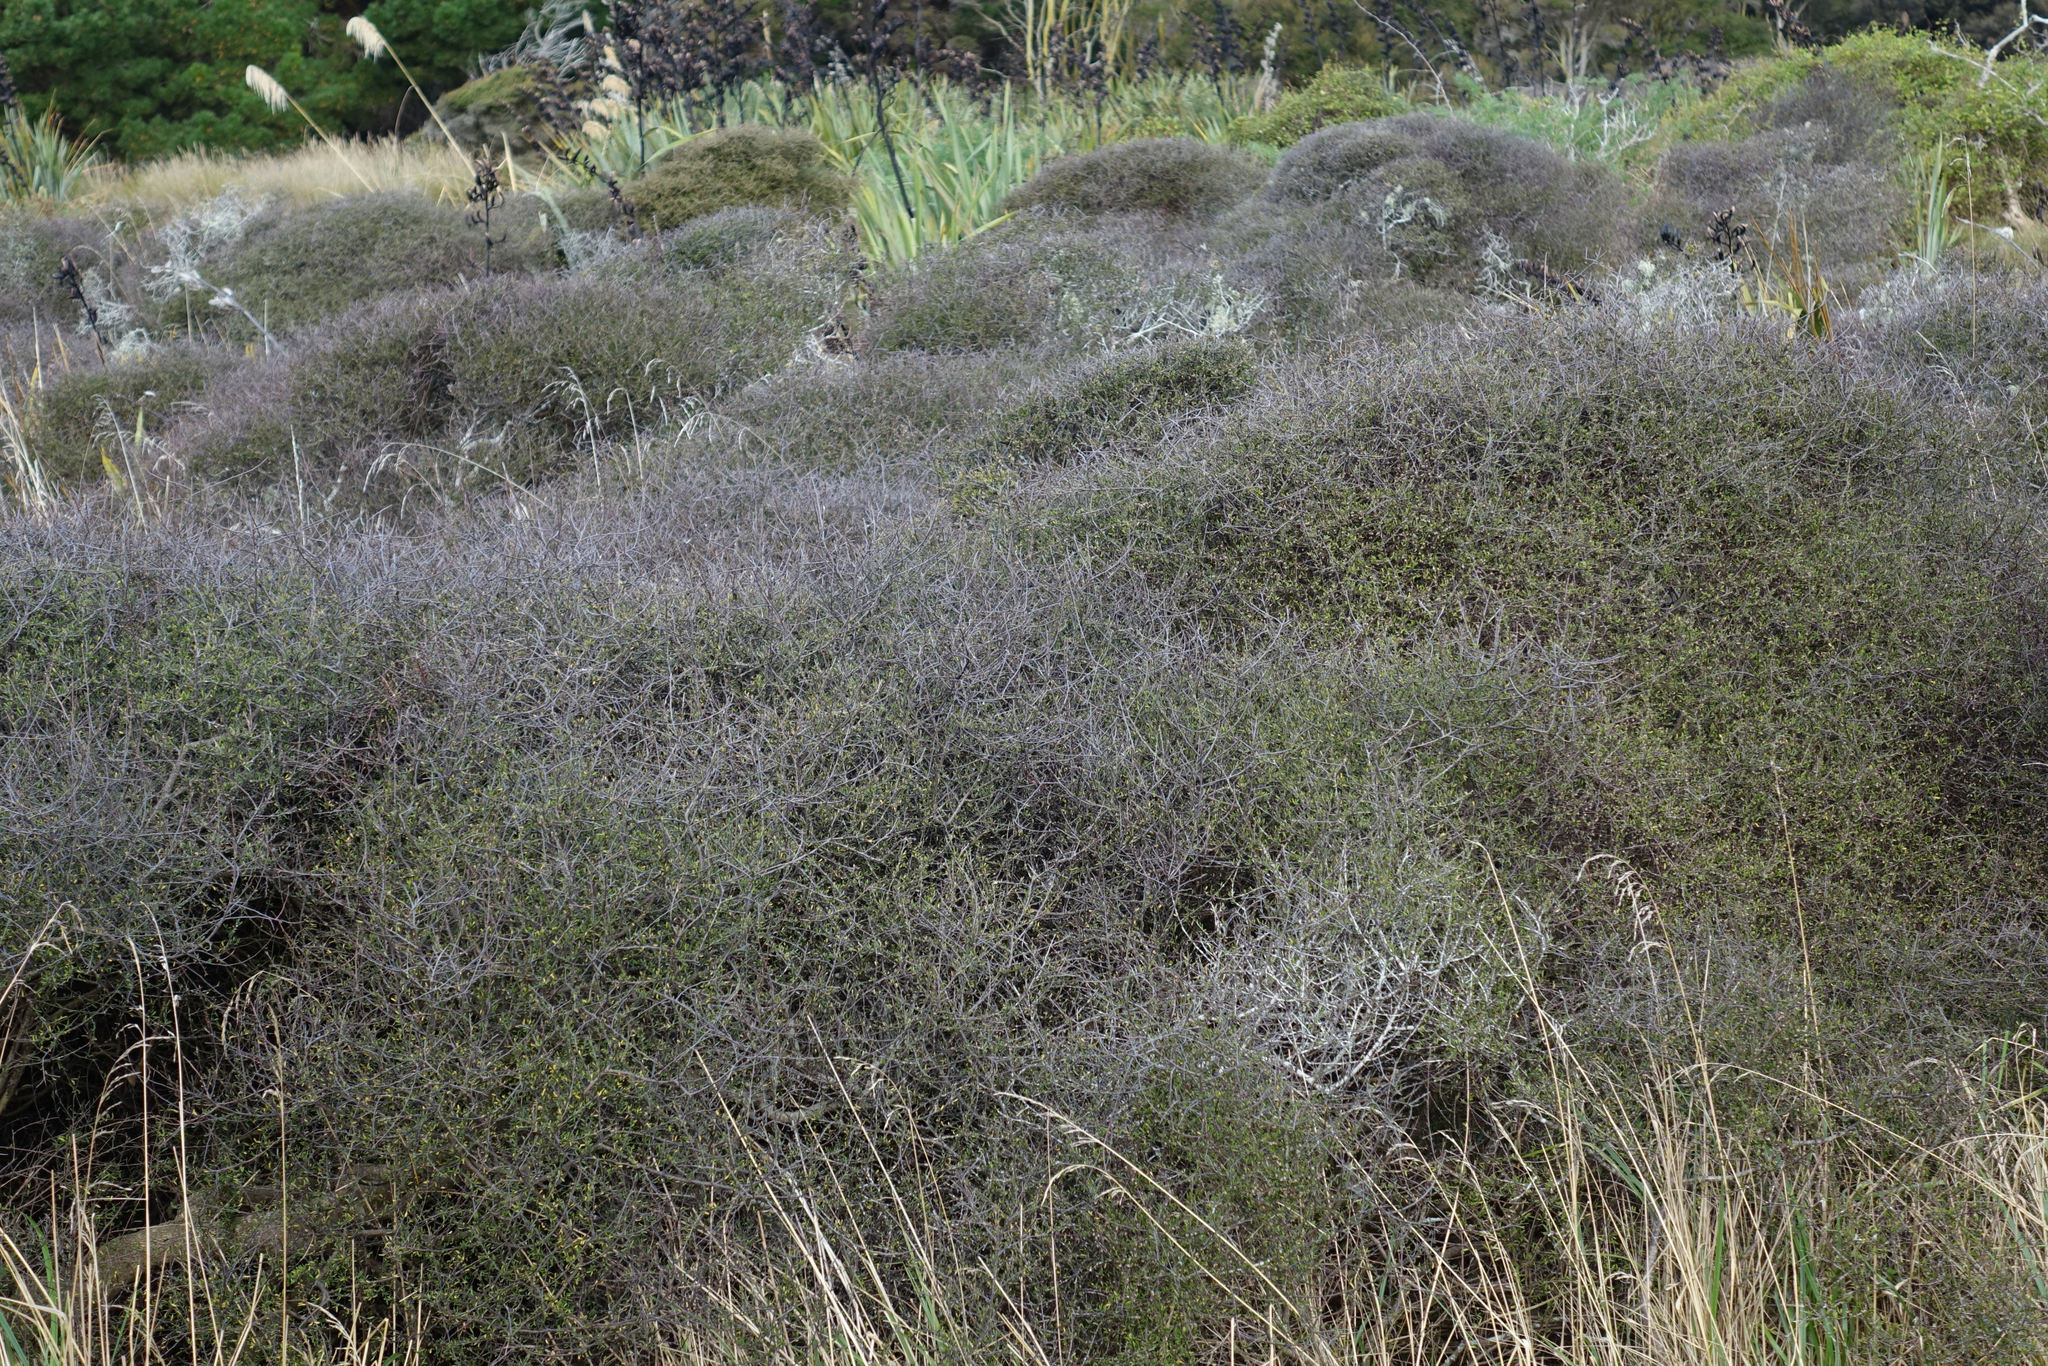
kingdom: Plantae
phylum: Tracheophyta
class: Magnoliopsida
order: Malvales
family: Malvaceae
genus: Plagianthus
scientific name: Plagianthus divaricatus
